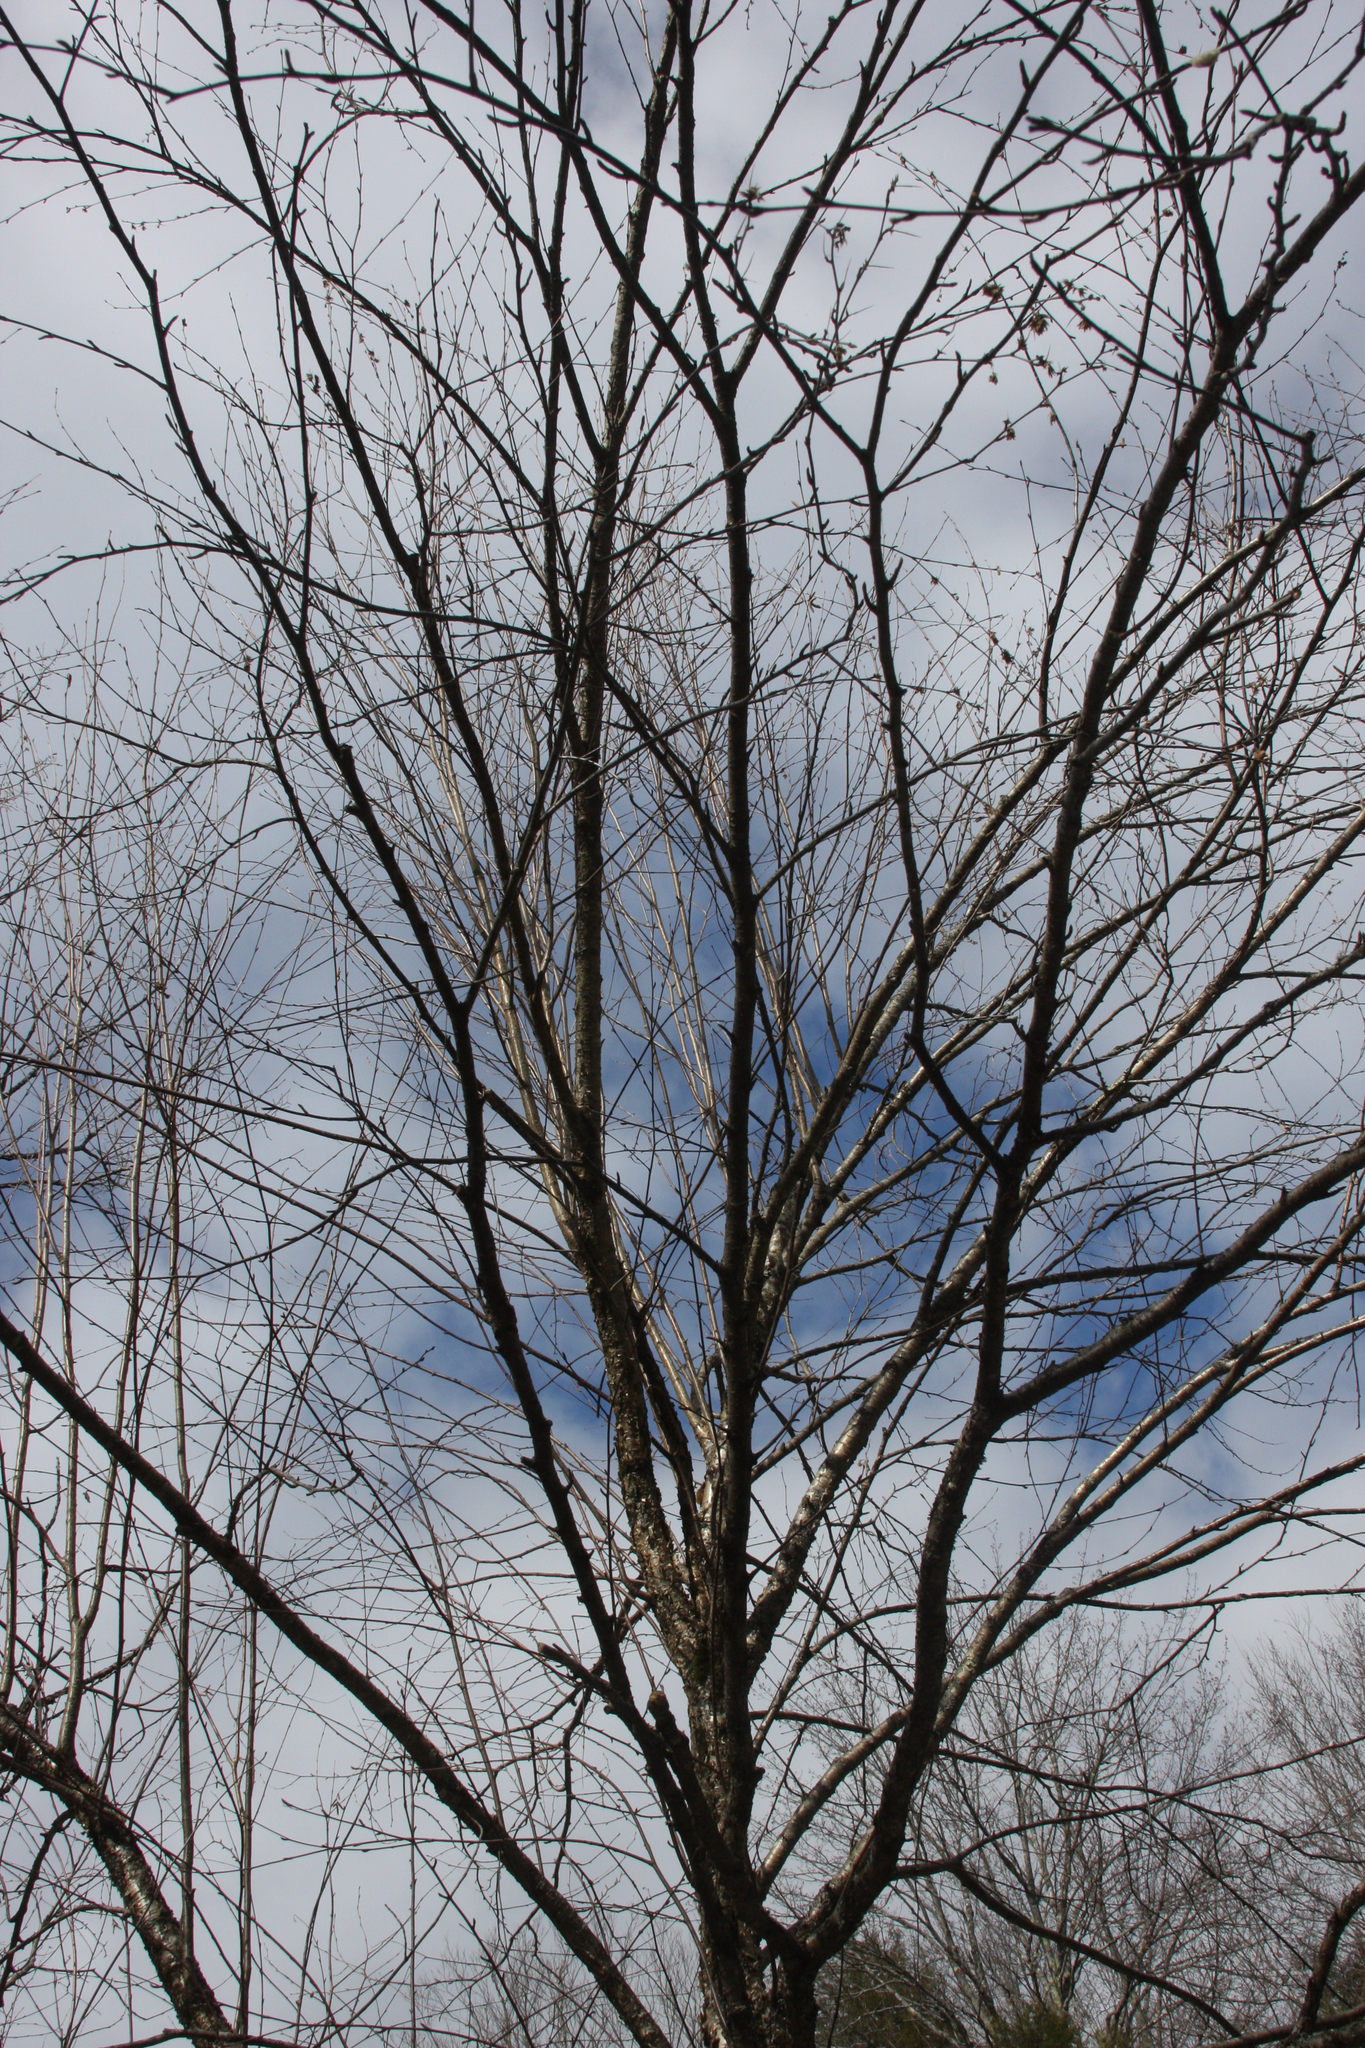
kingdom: Plantae
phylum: Tracheophyta
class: Magnoliopsida
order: Fagales
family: Betulaceae
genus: Betula
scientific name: Betula alleghaniensis
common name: Yellow birch
